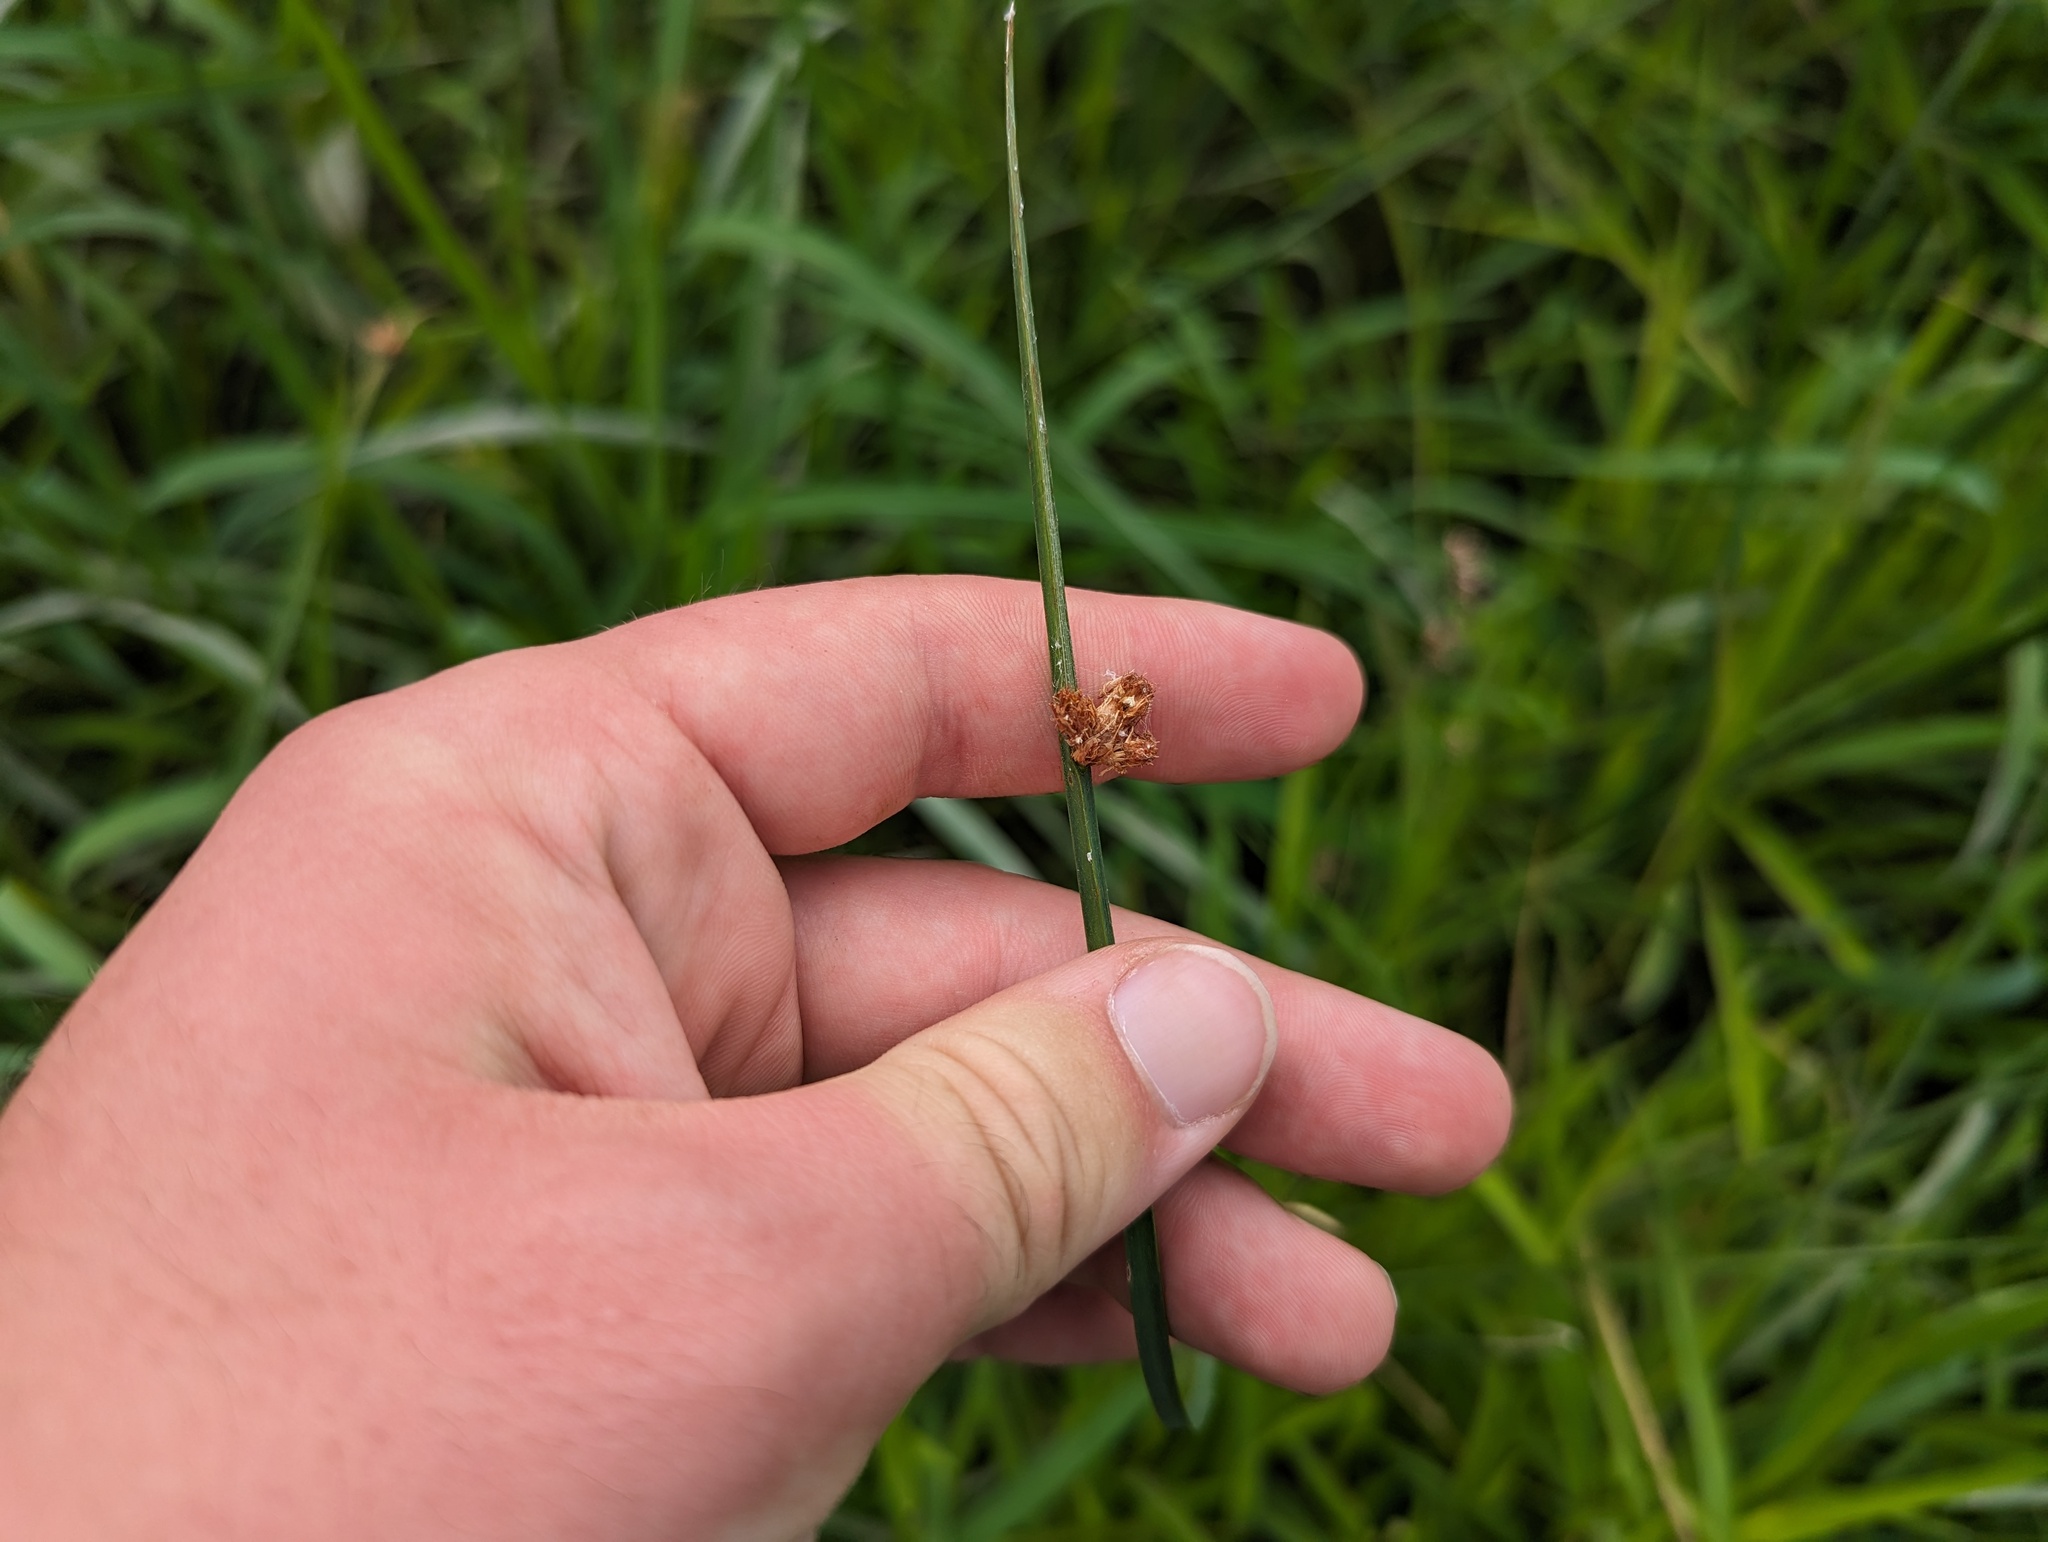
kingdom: Plantae
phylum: Tracheophyta
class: Liliopsida
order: Poales
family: Cyperaceae
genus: Schoenoplectus
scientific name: Schoenoplectus pungens
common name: Sharp club-rush
